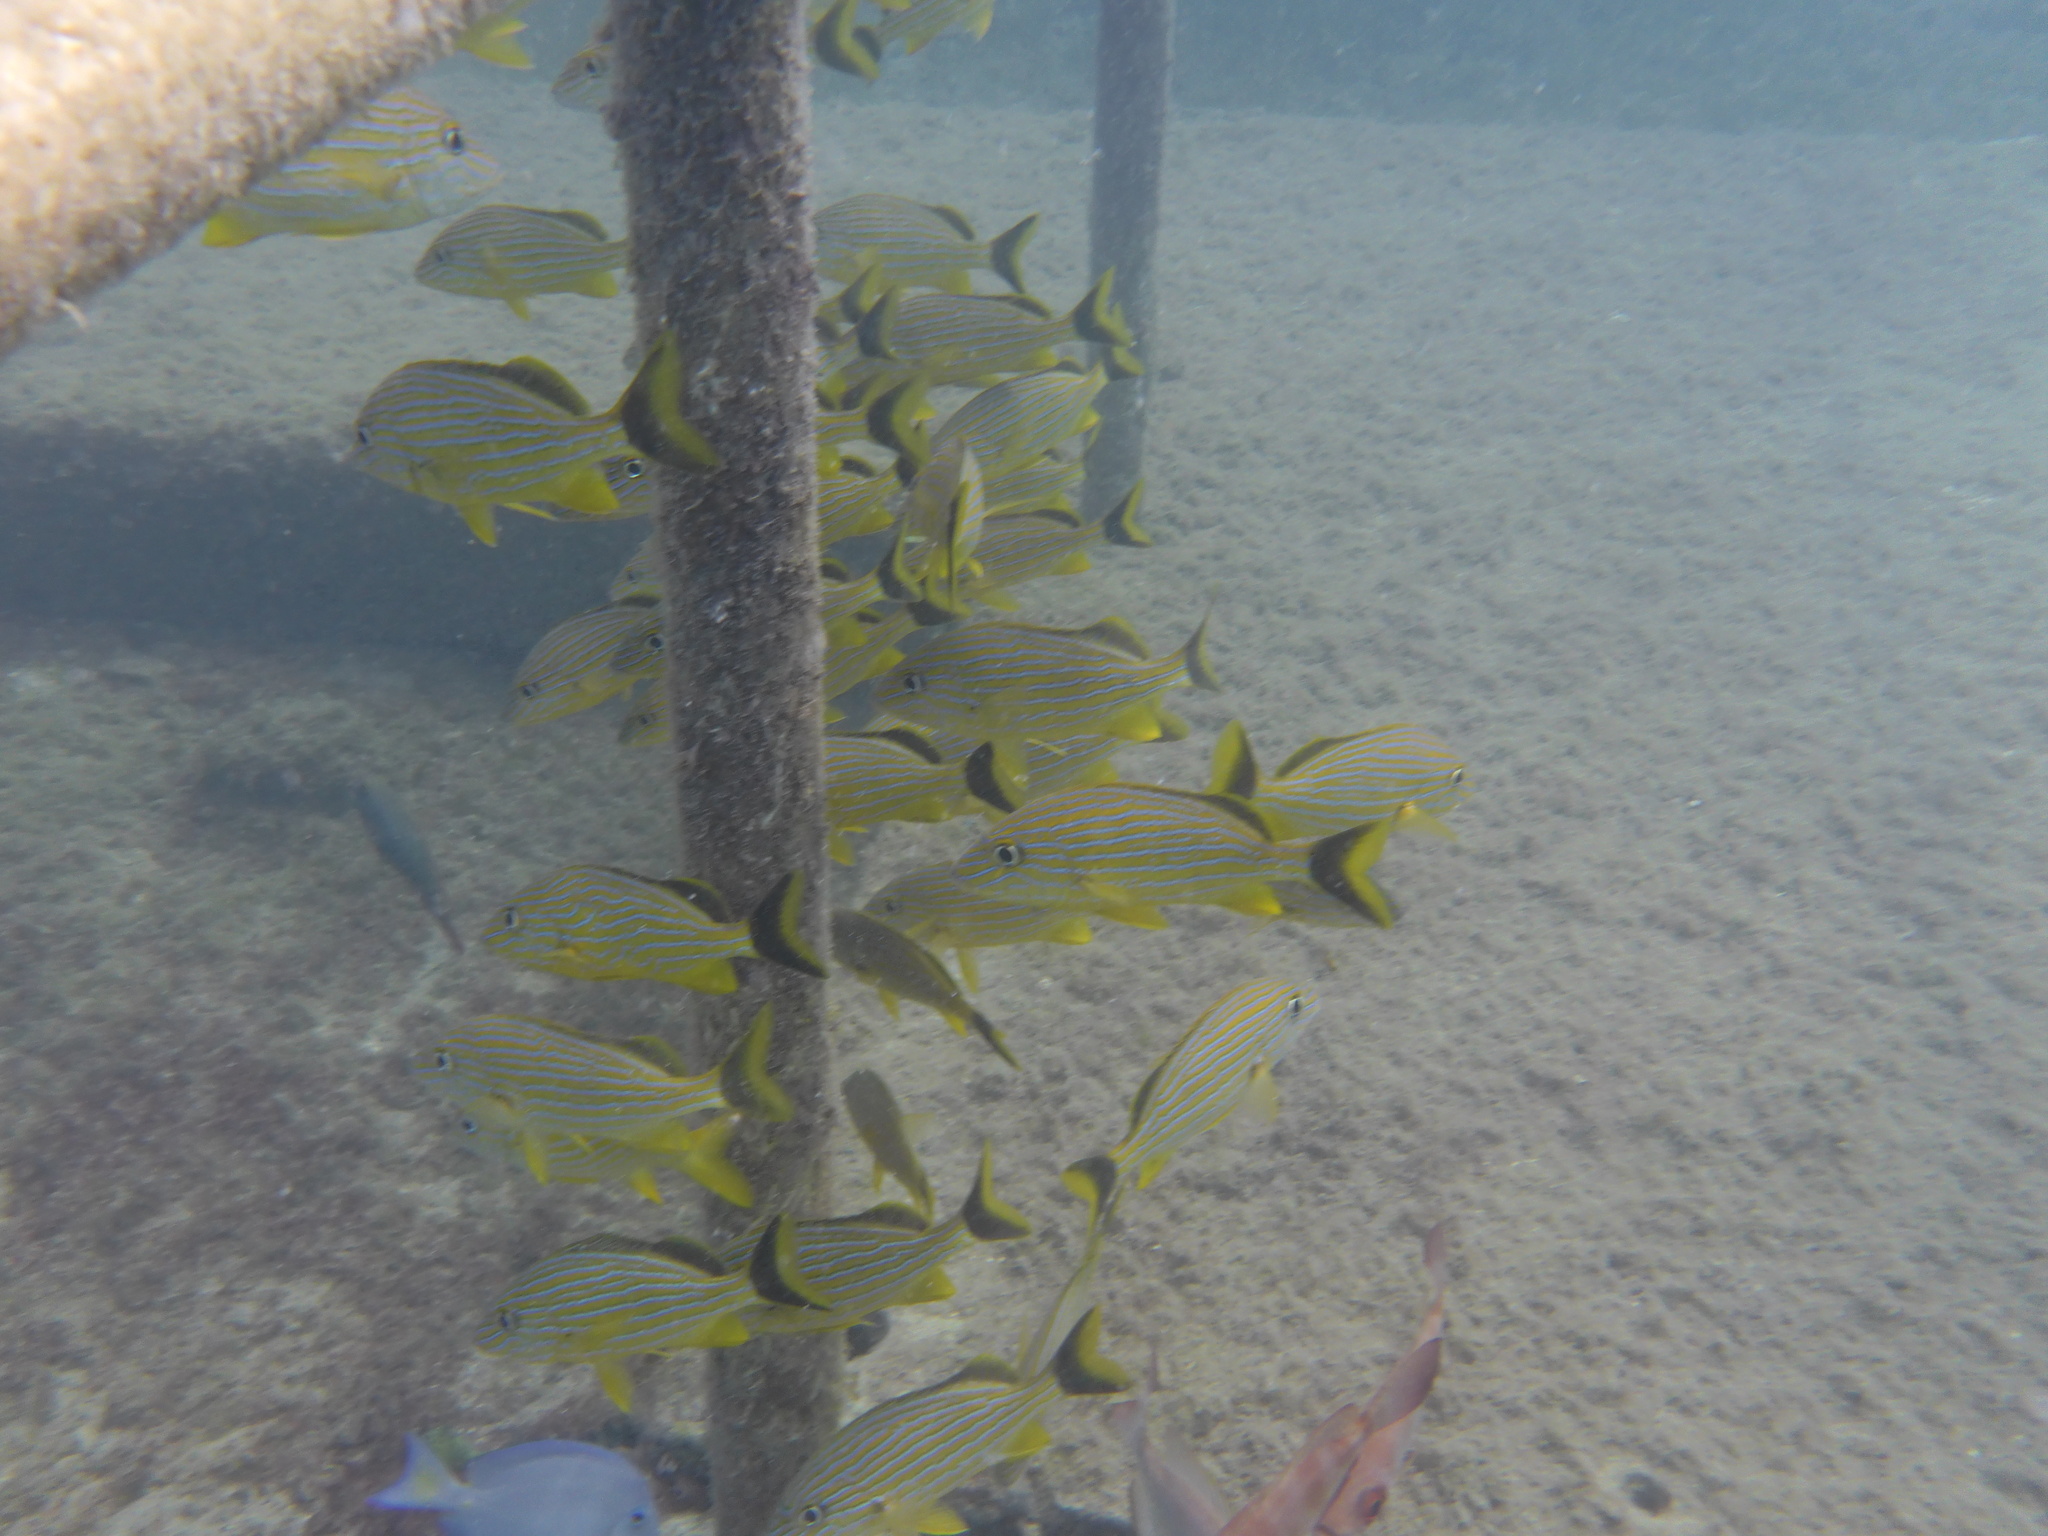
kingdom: Animalia
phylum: Chordata
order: Perciformes
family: Haemulidae
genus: Haemulon
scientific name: Haemulon sciurus
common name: Bluestriped grunt
